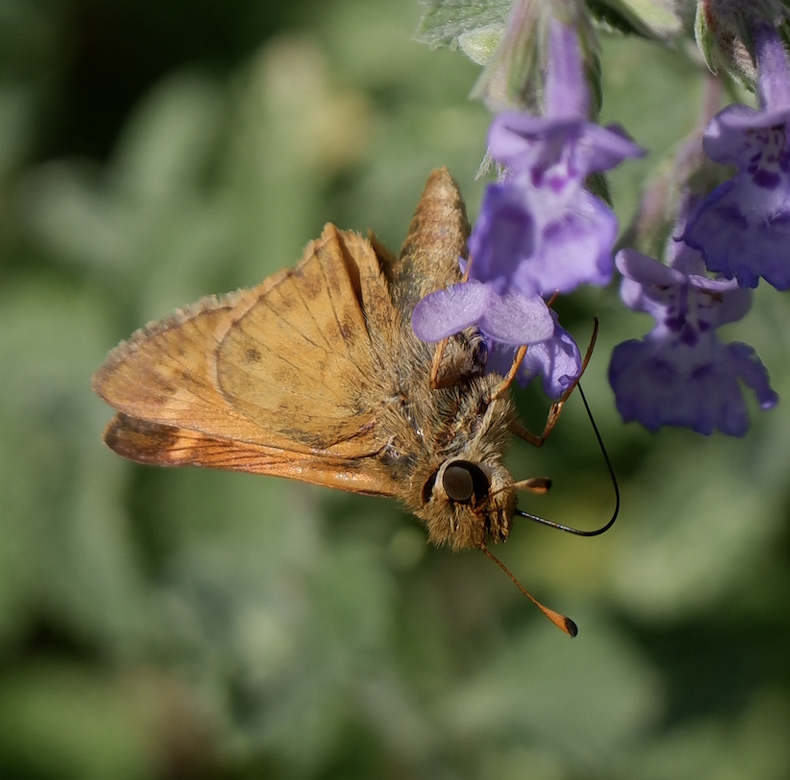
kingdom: Animalia
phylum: Arthropoda
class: Insecta
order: Lepidoptera
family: Hesperiidae
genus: Atalopedes
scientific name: Atalopedes
